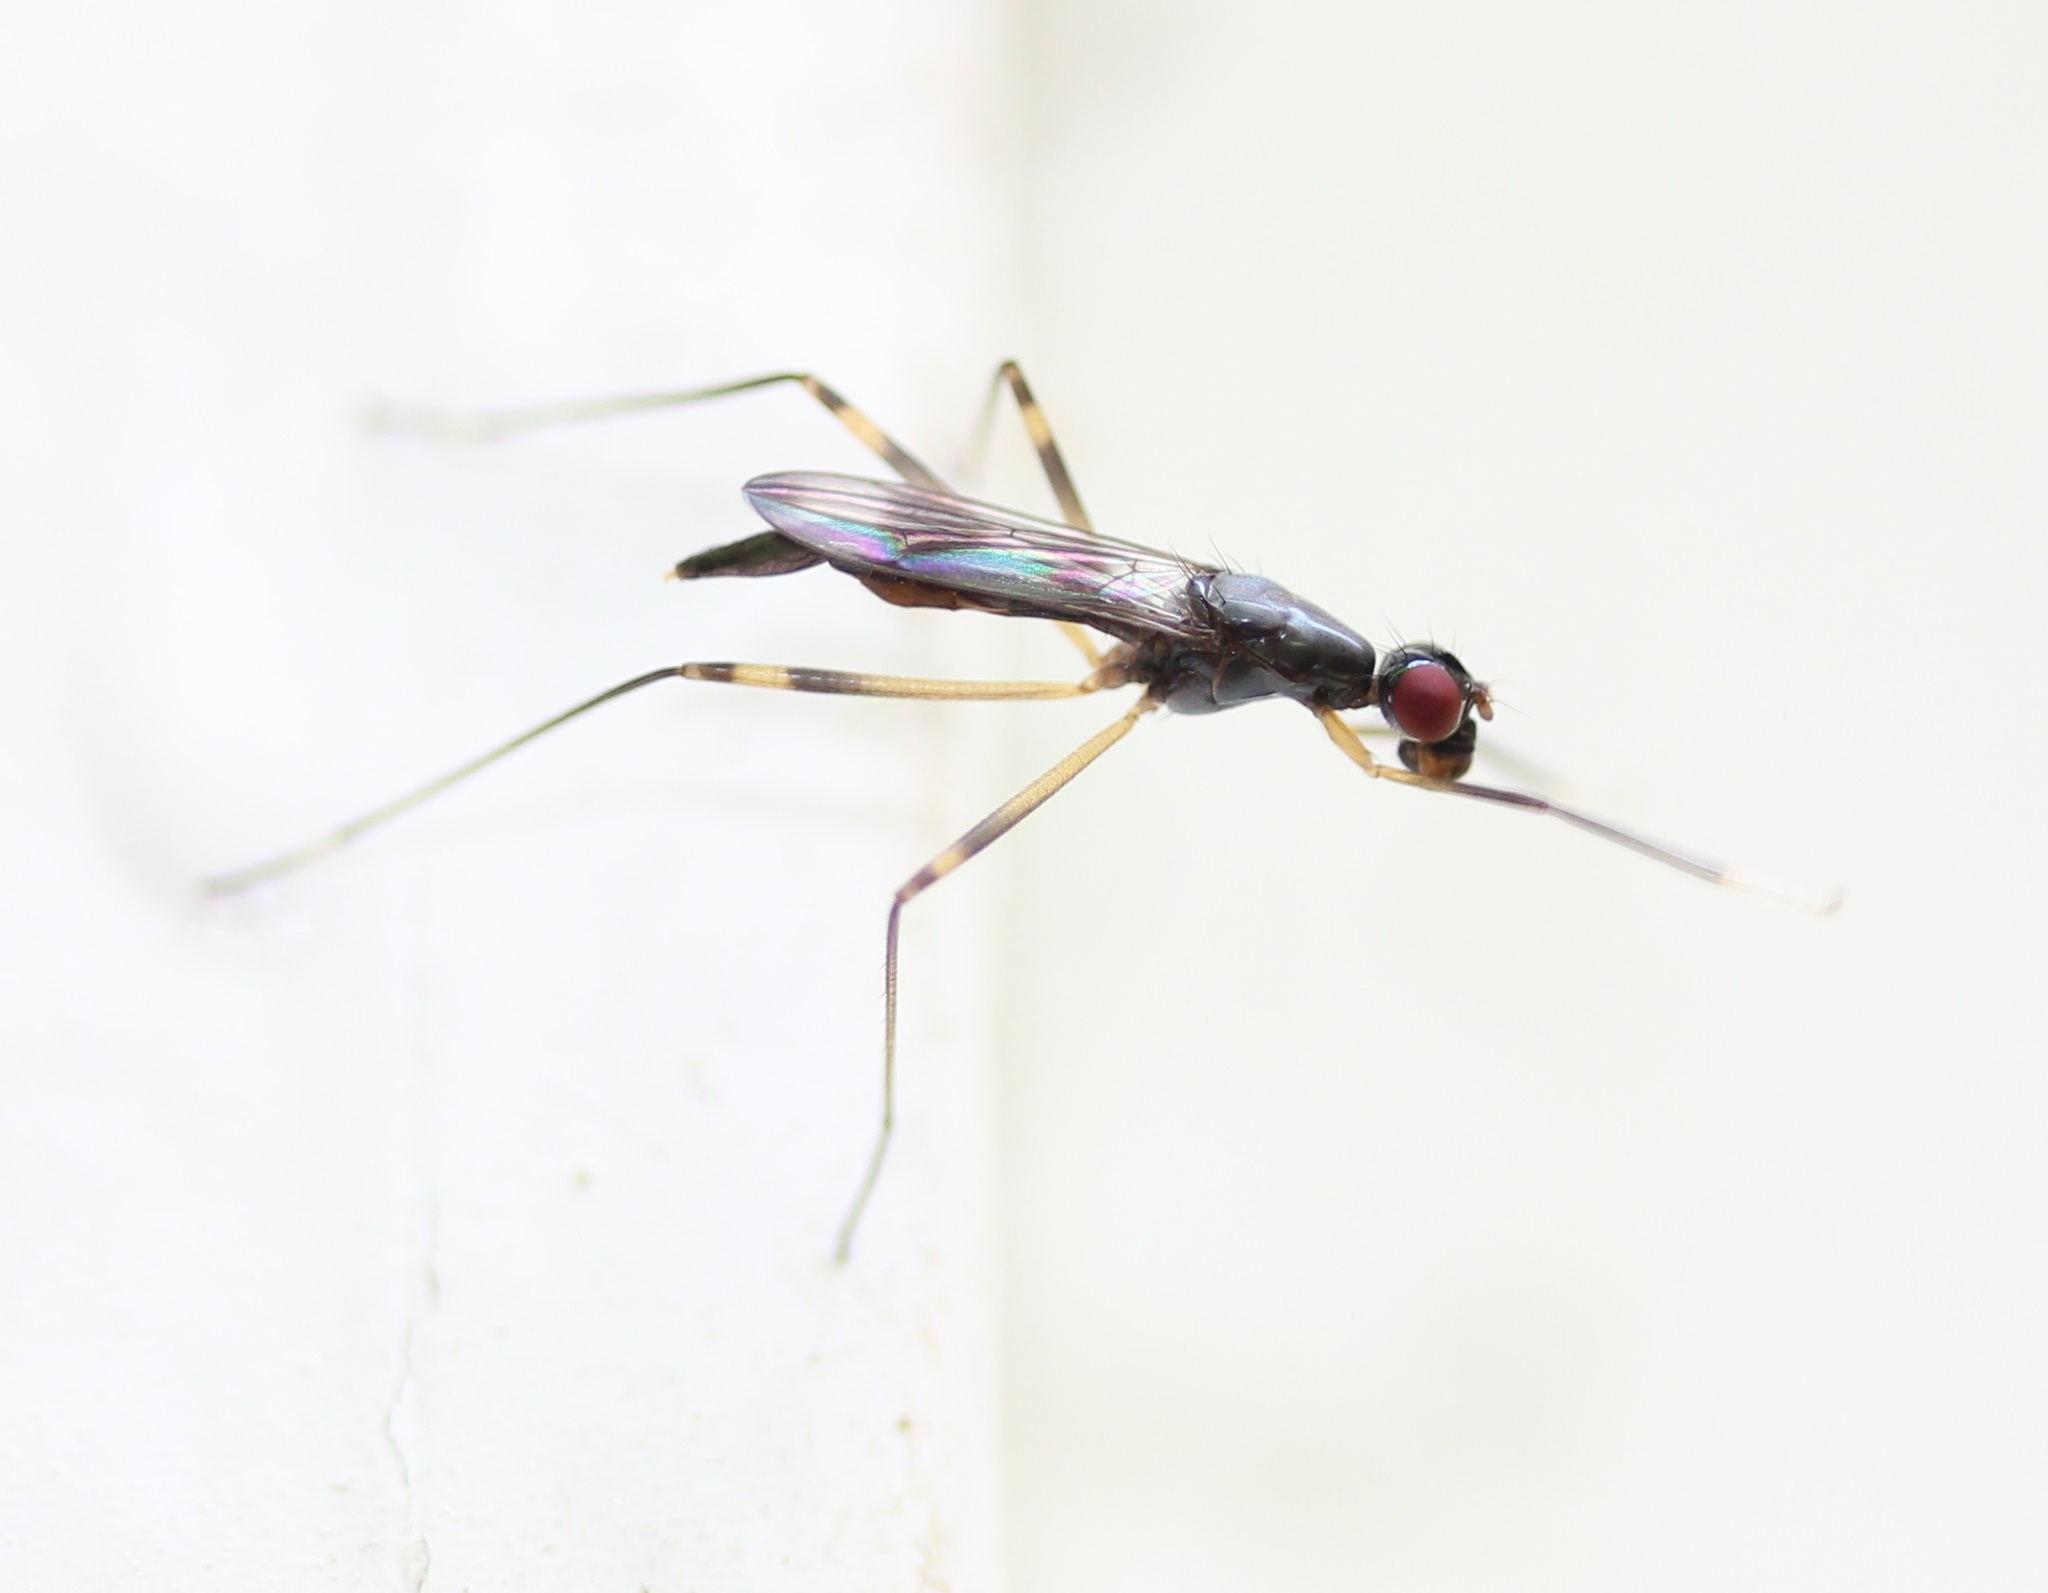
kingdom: Animalia
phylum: Arthropoda
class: Insecta
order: Diptera
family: Micropezidae
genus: Rainieria
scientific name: Rainieria antennaepes
